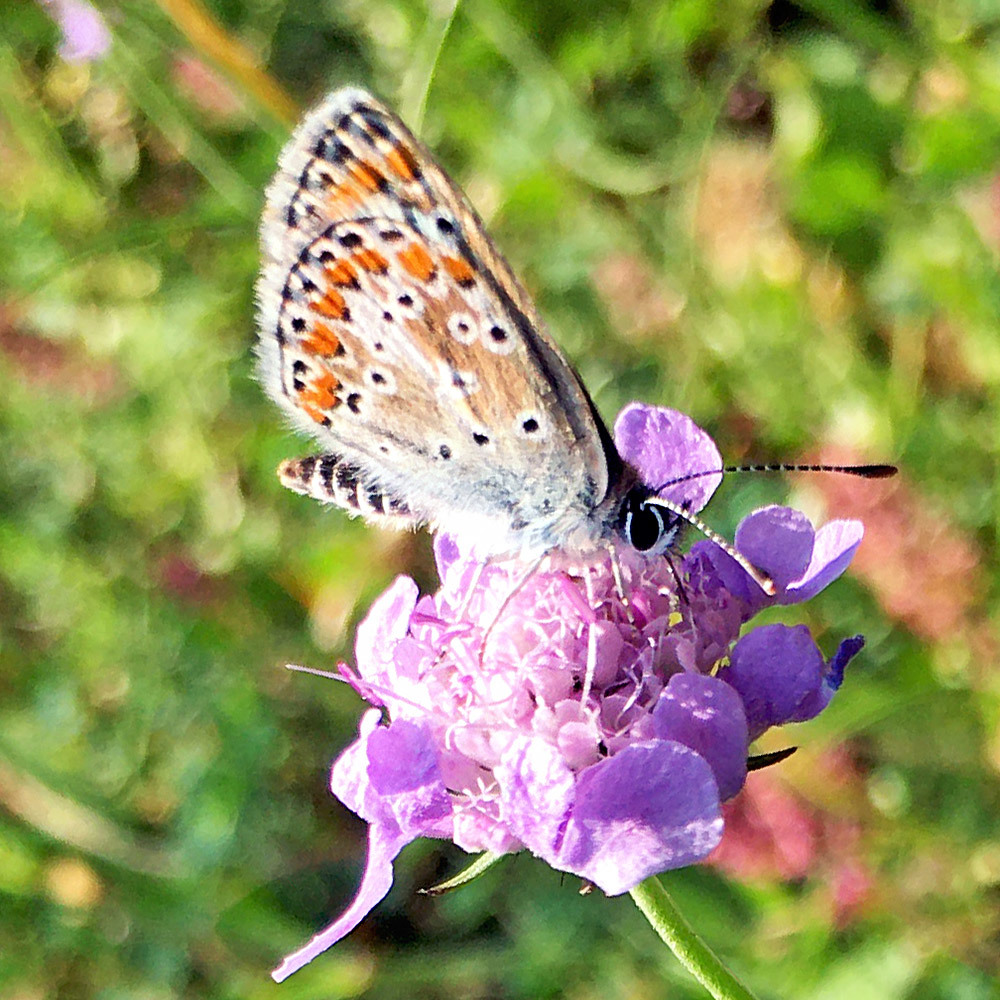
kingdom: Animalia
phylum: Arthropoda
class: Insecta
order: Lepidoptera
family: Lycaenidae
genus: Aricia
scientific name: Aricia agestis
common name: Brown argus
